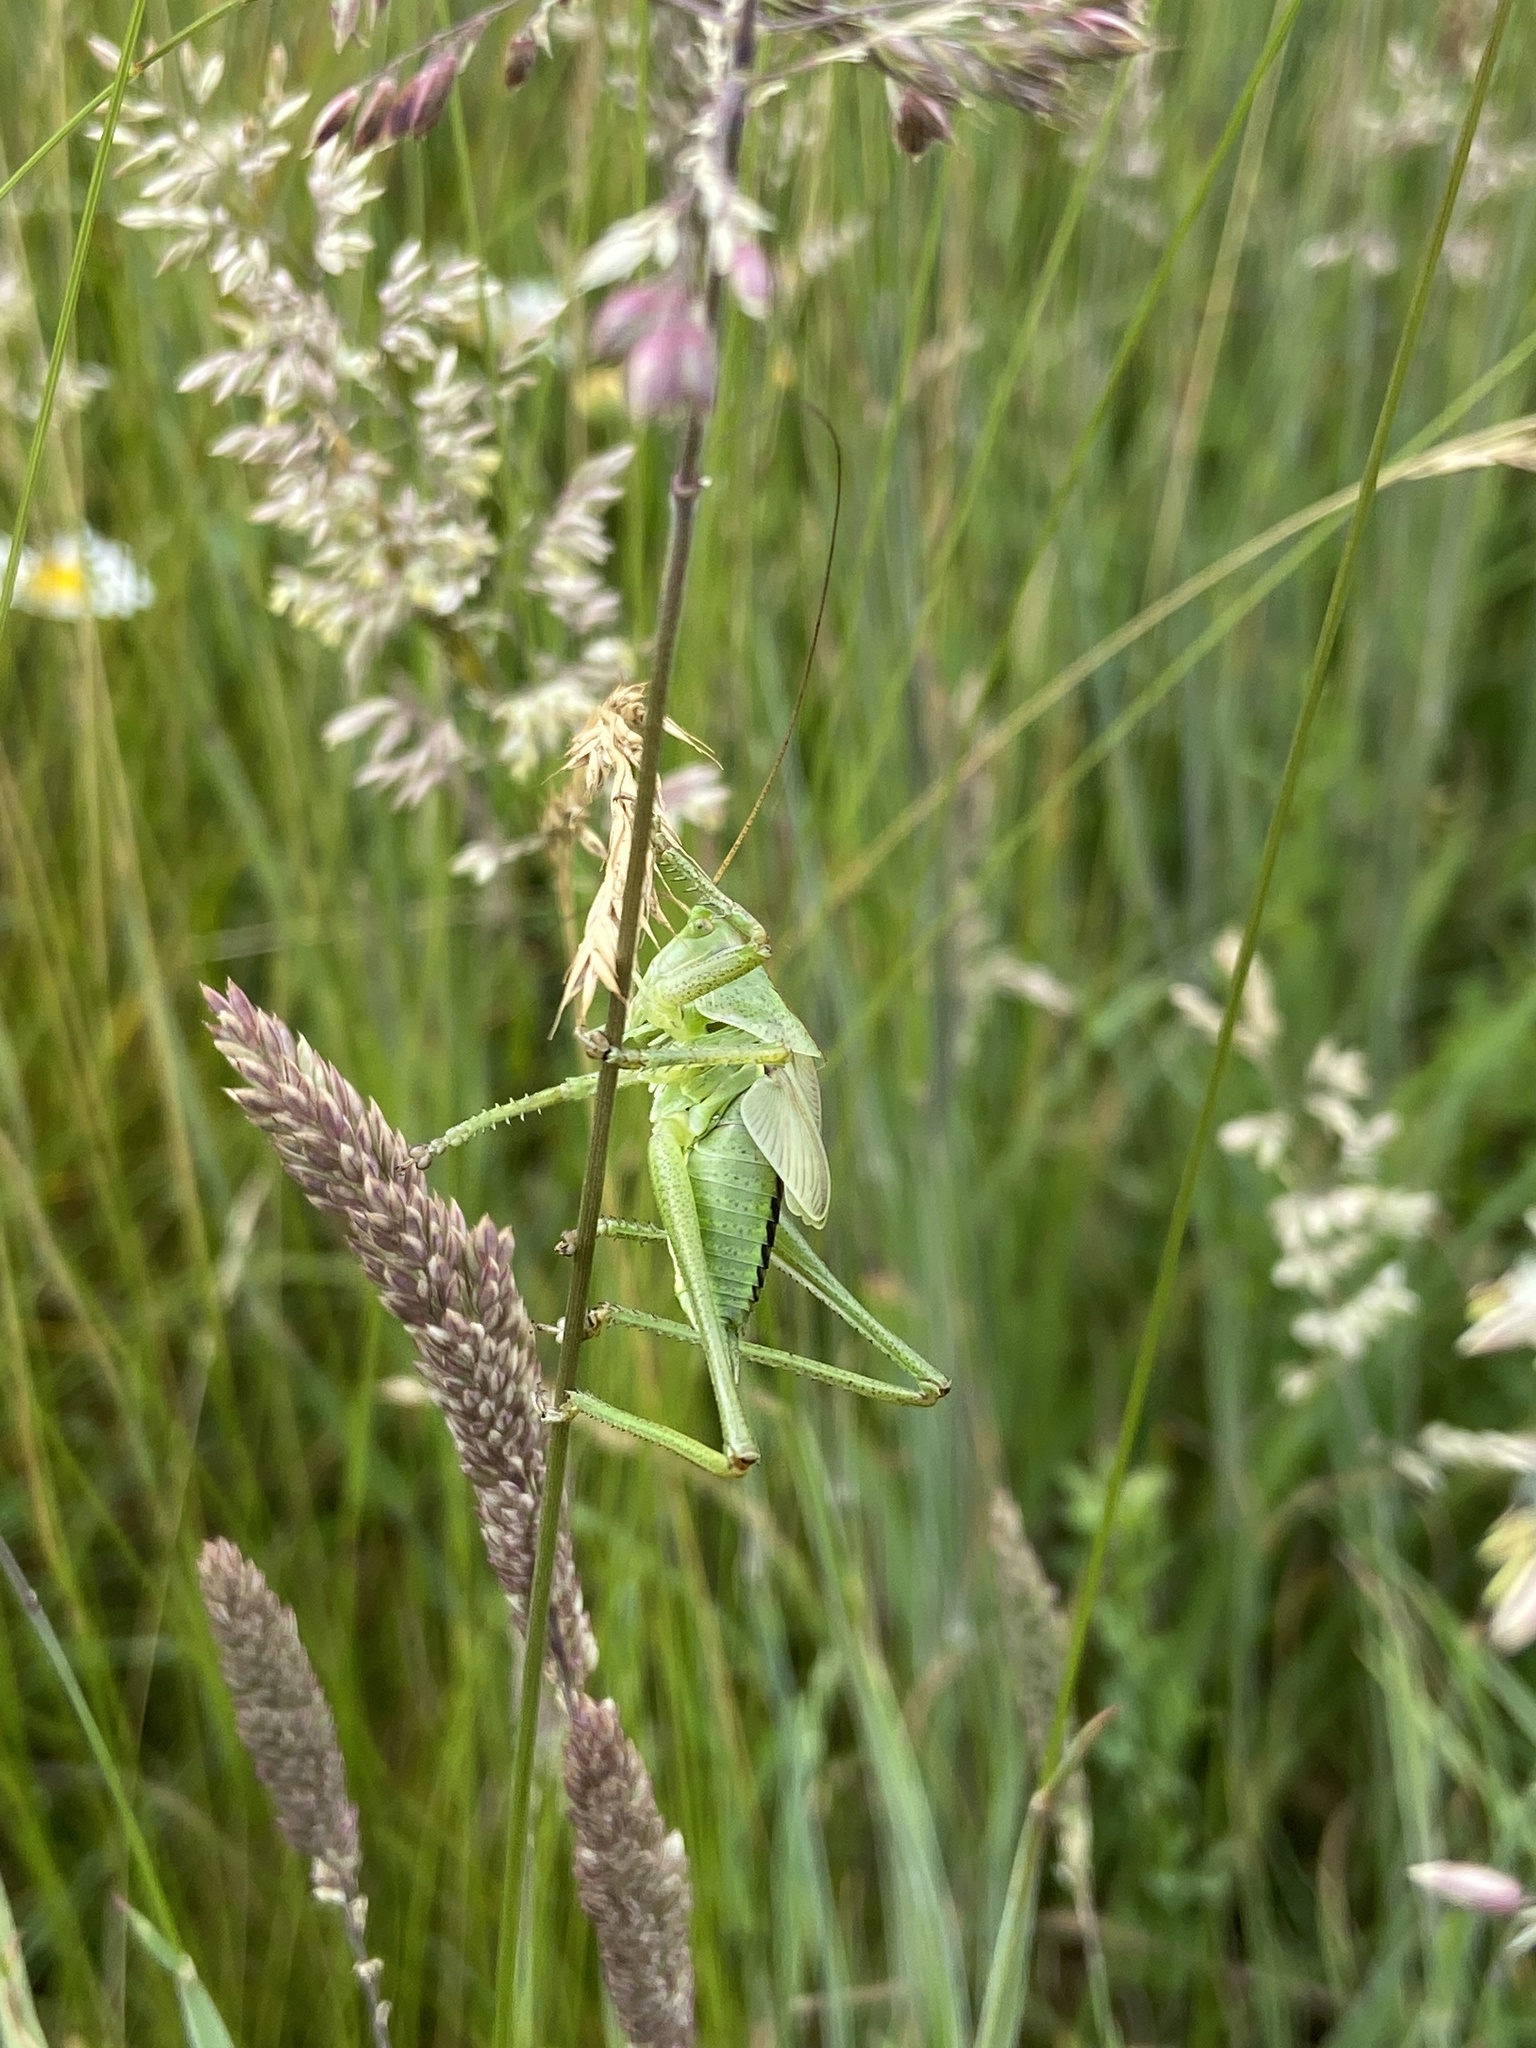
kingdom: Animalia
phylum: Arthropoda
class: Insecta
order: Orthoptera
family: Tettigoniidae
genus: Tettigonia
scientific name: Tettigonia viridissima
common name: Great green bush-cricket
